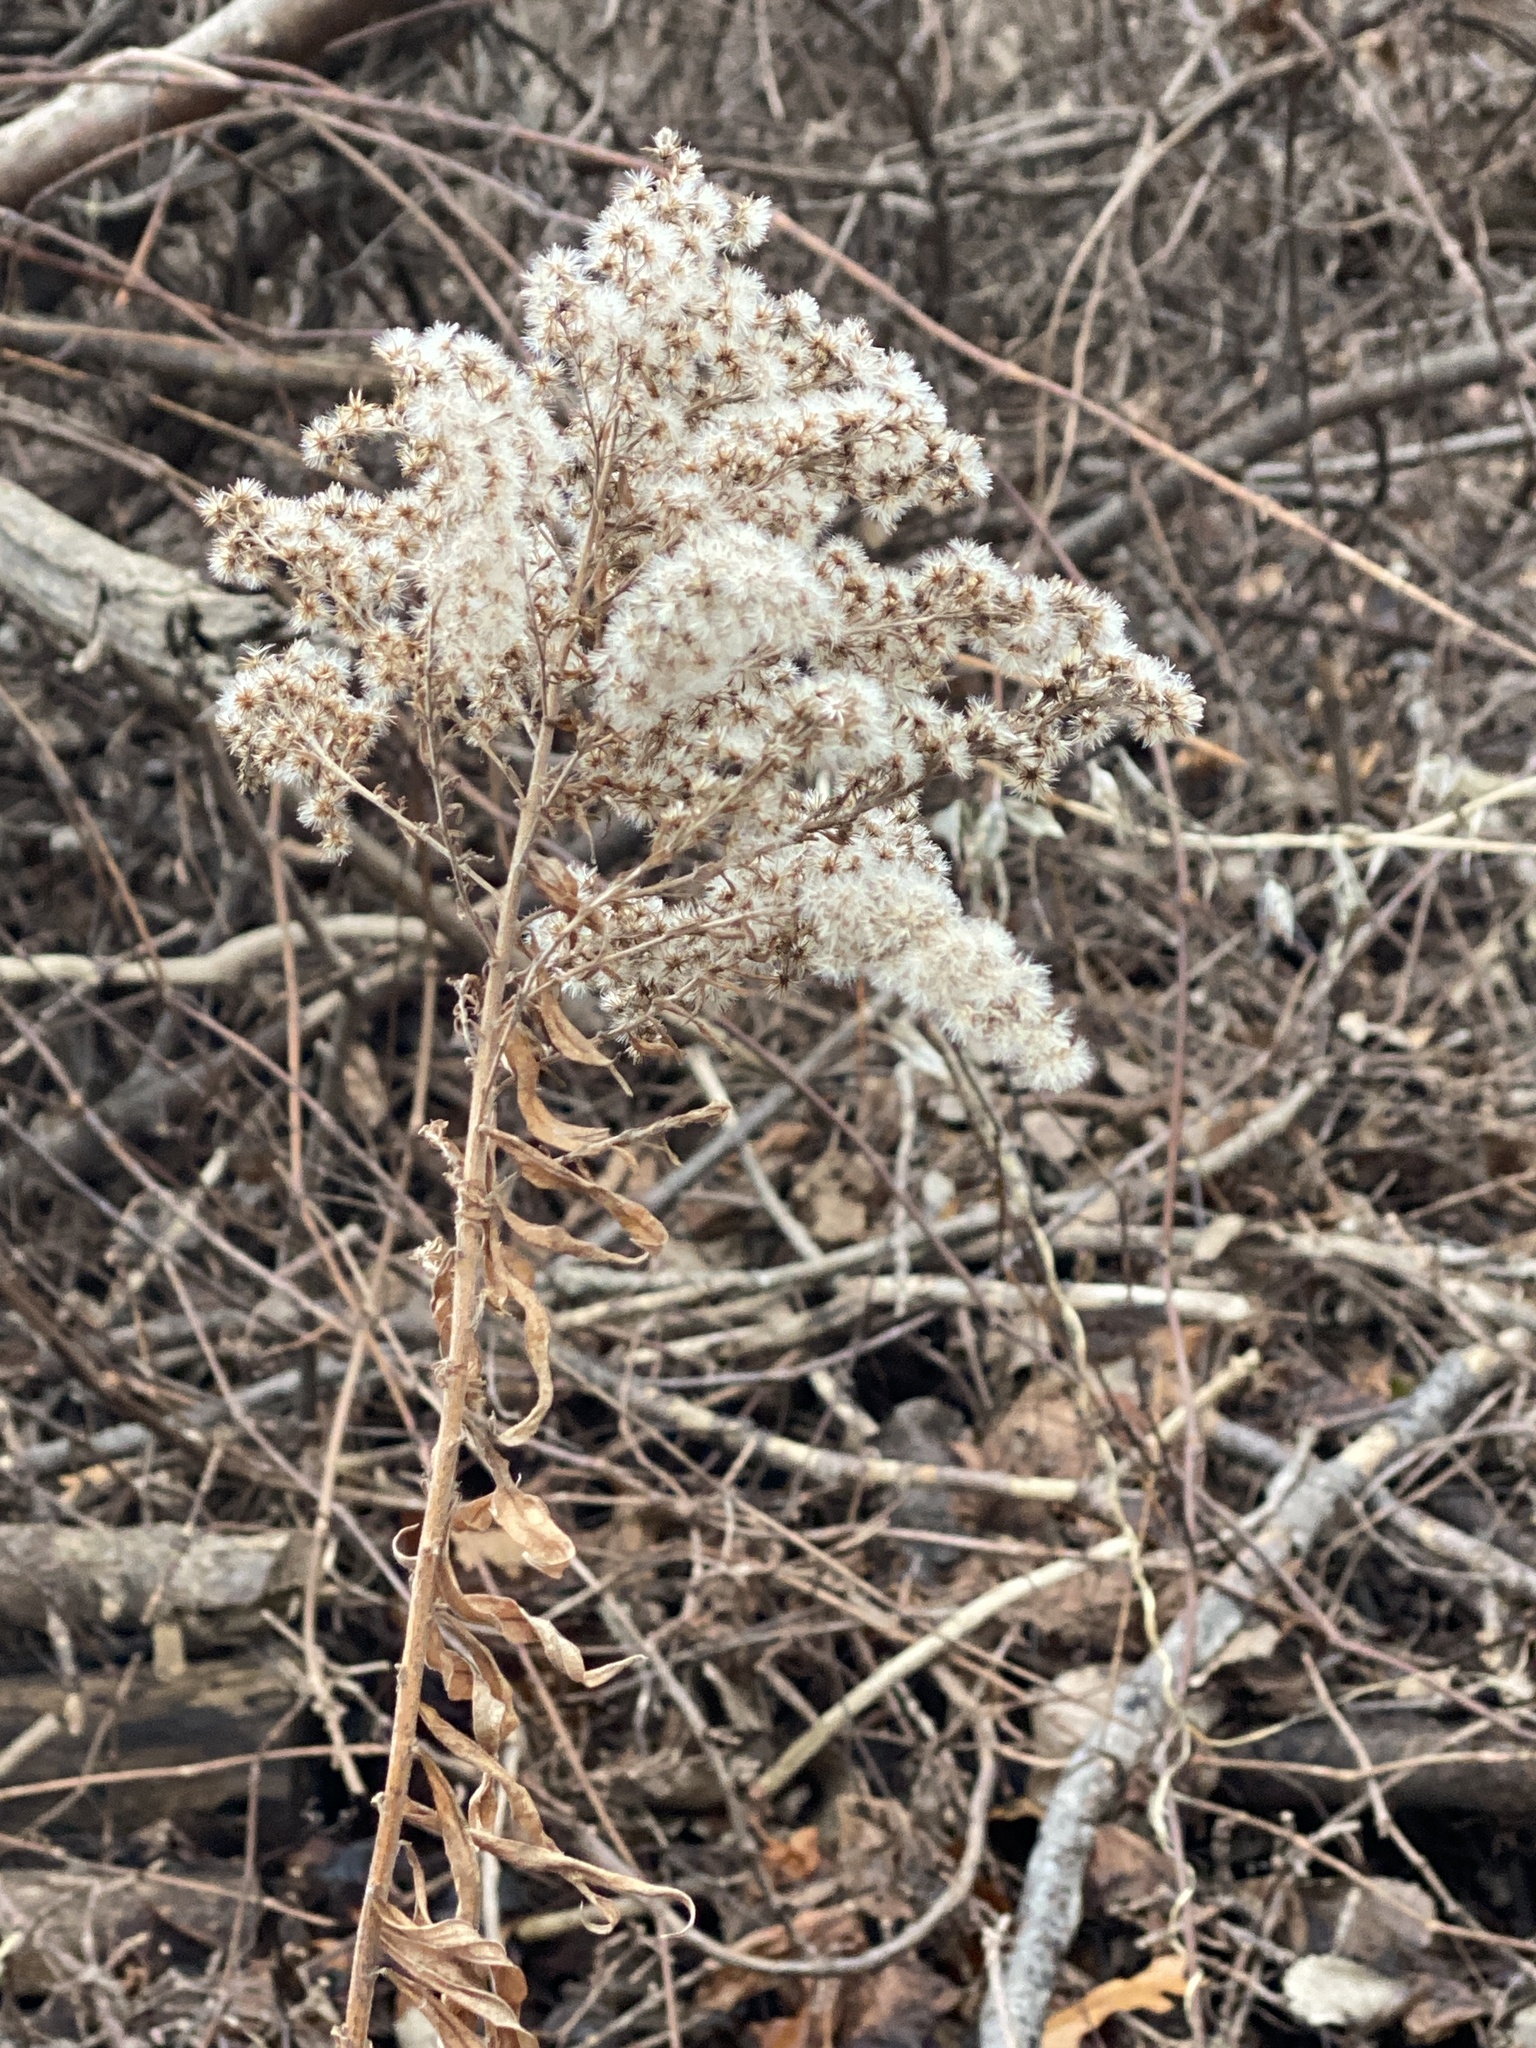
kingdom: Plantae
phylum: Tracheophyta
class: Magnoliopsida
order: Asterales
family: Asteraceae
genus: Solidago
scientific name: Solidago altissima
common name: Late goldenrod
